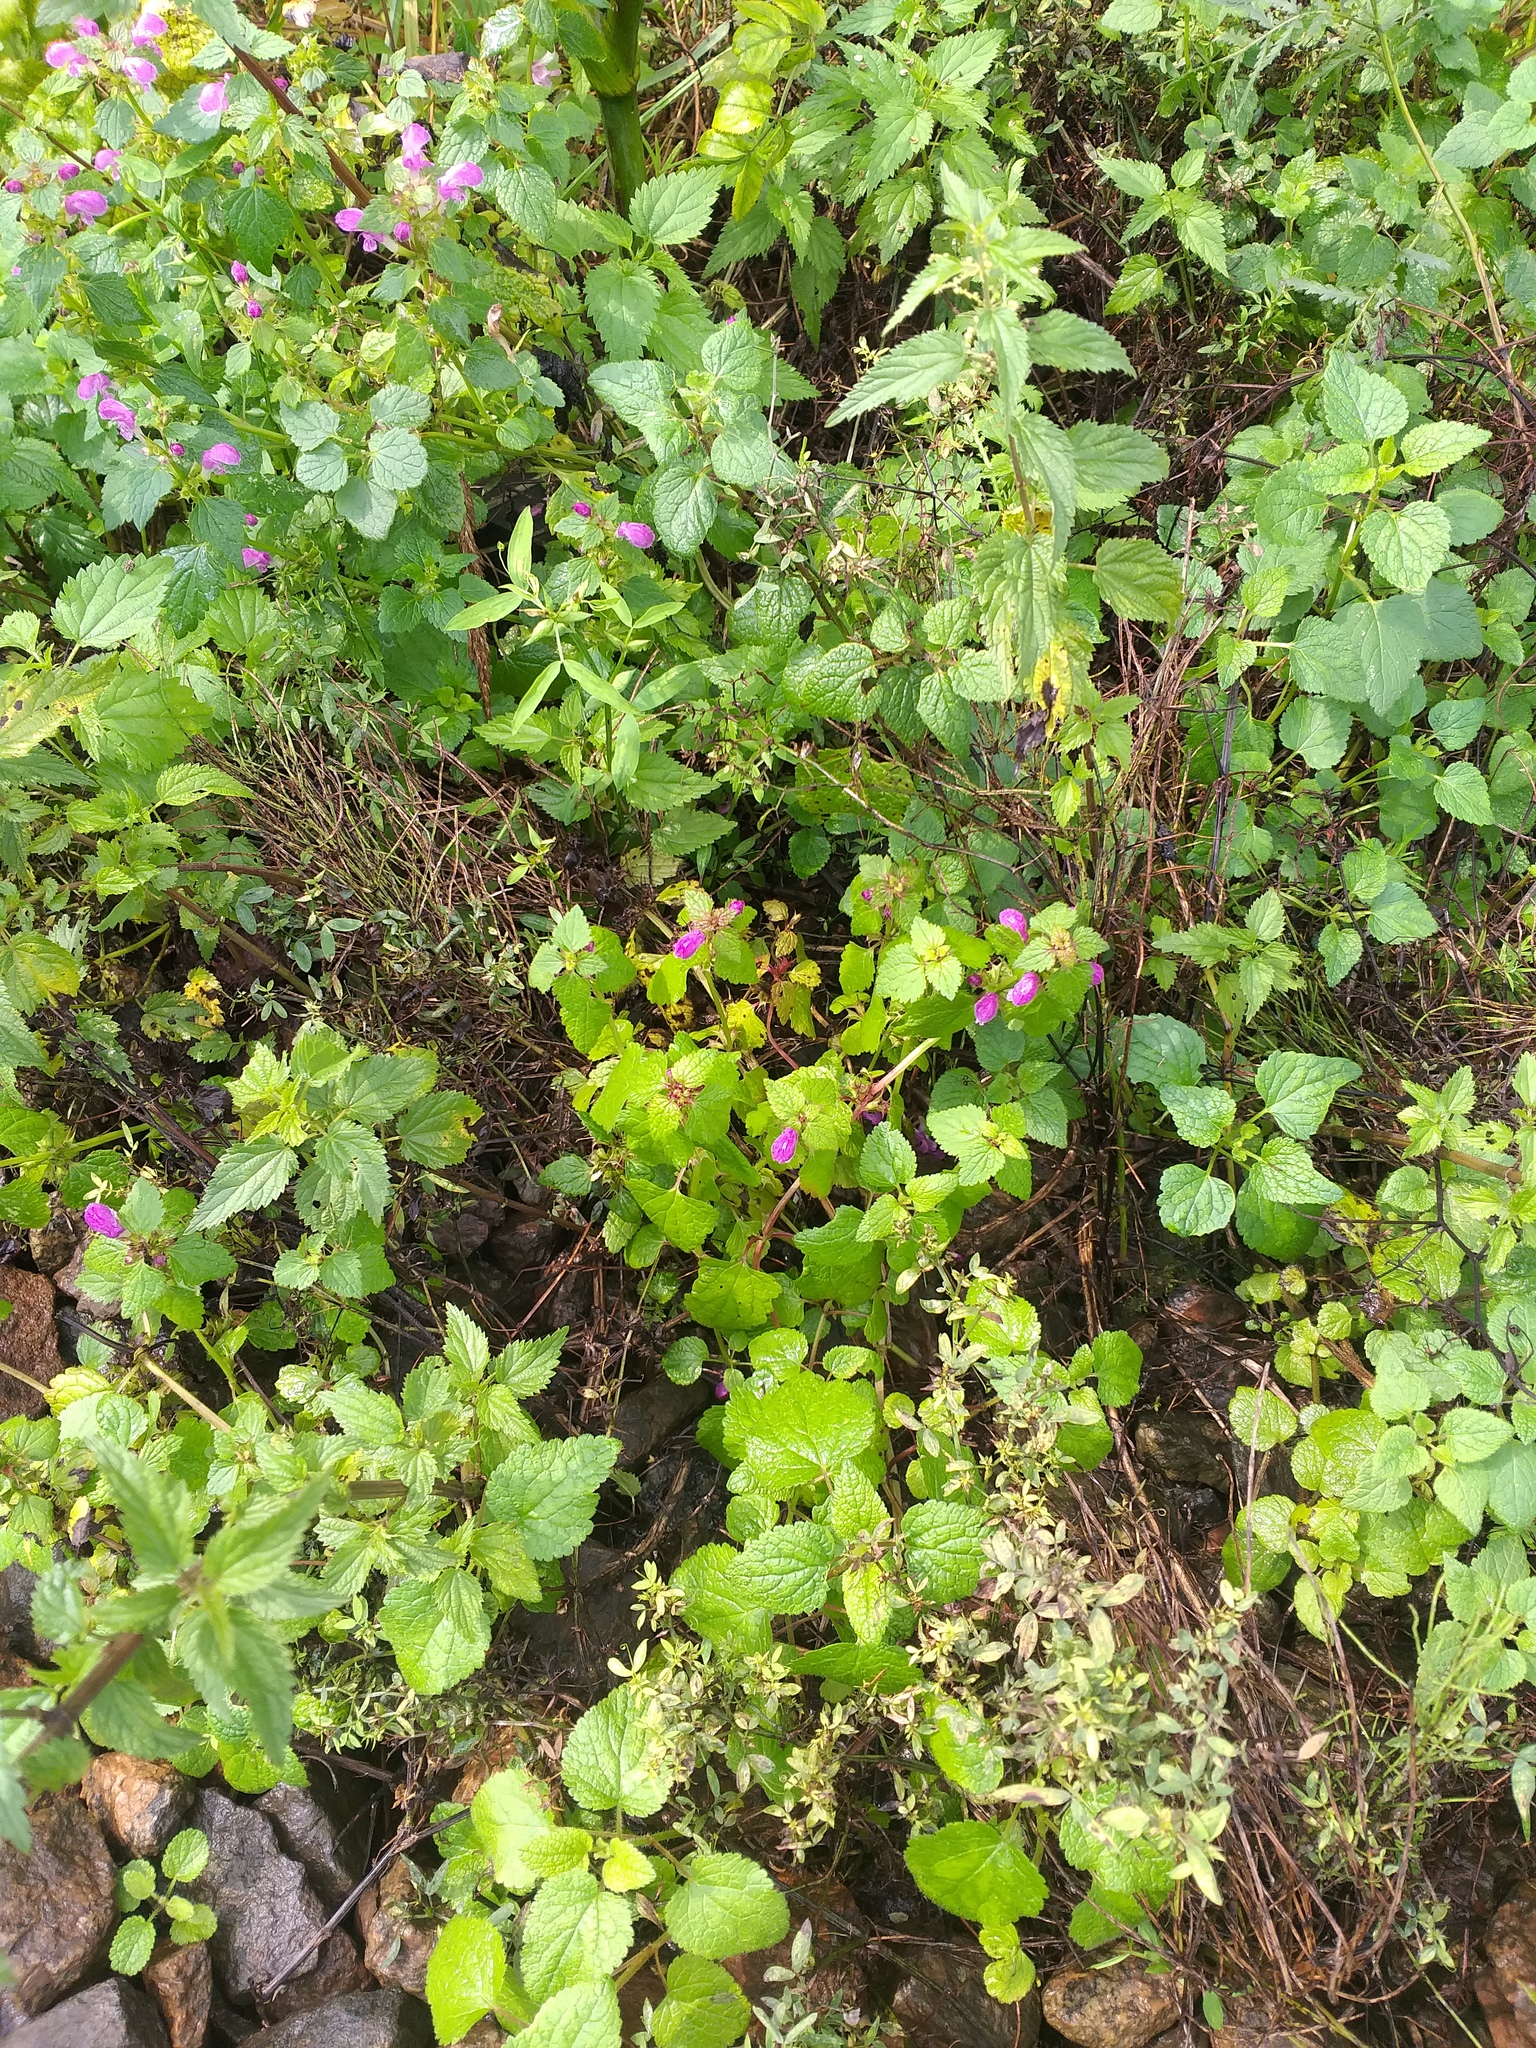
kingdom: Plantae
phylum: Tracheophyta
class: Magnoliopsida
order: Lamiales
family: Lamiaceae
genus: Lamium
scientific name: Lamium maculatum
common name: Spotted dead-nettle
